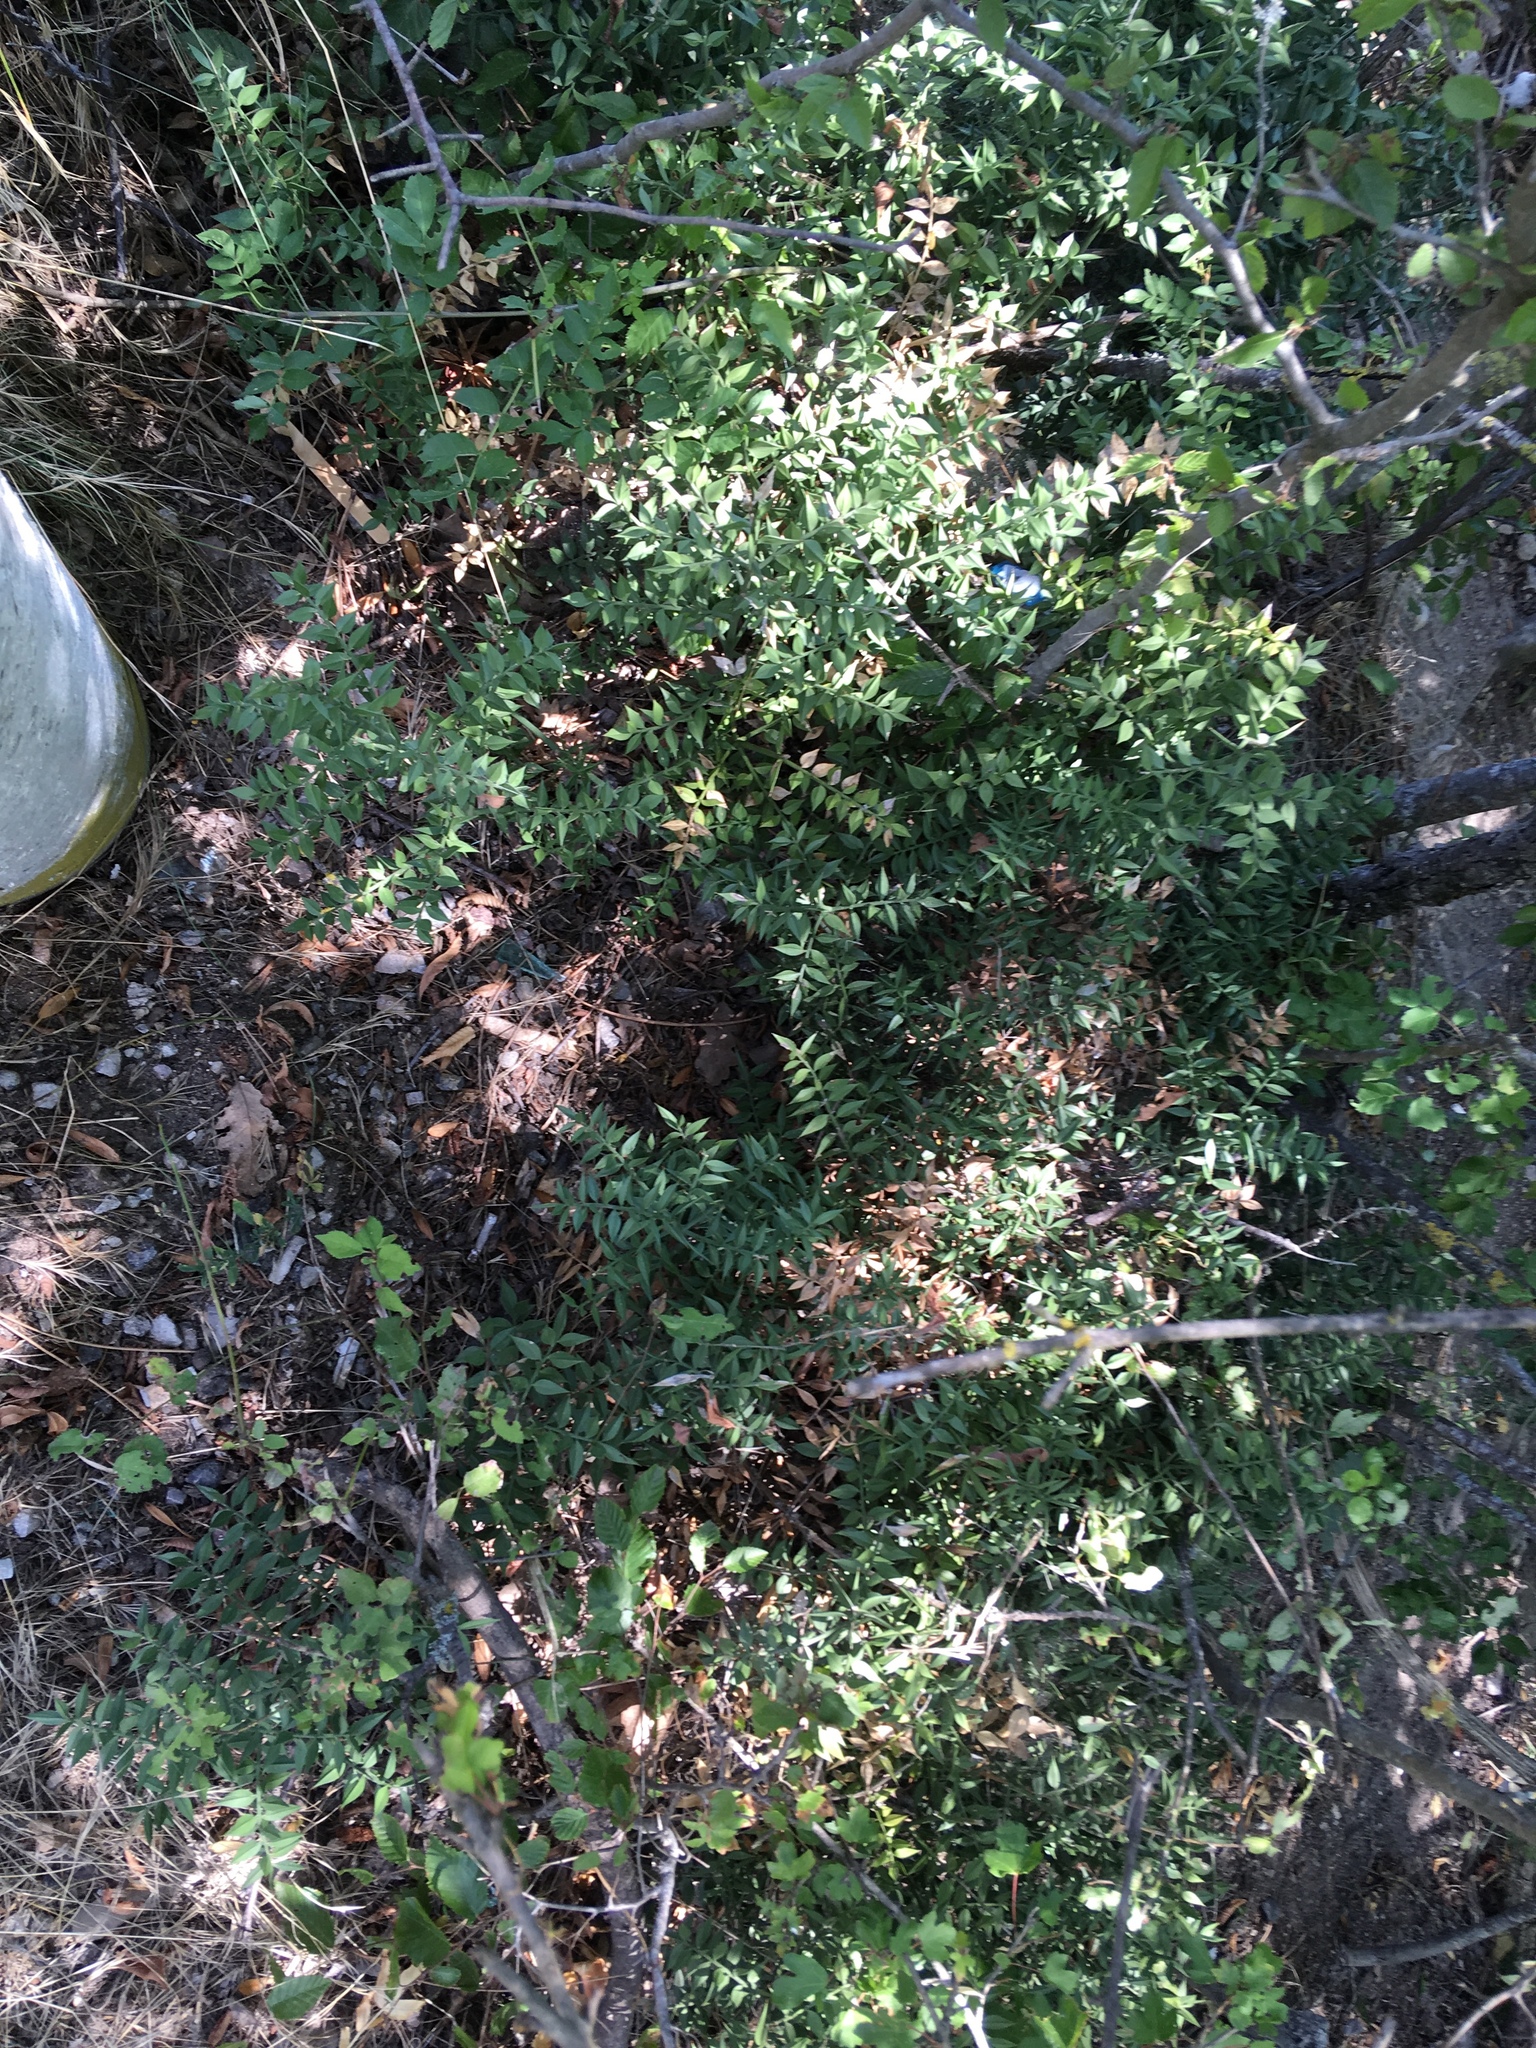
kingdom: Plantae
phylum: Tracheophyta
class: Liliopsida
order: Asparagales
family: Asparagaceae
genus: Ruscus
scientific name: Ruscus aculeatus
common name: Butcher's-broom
